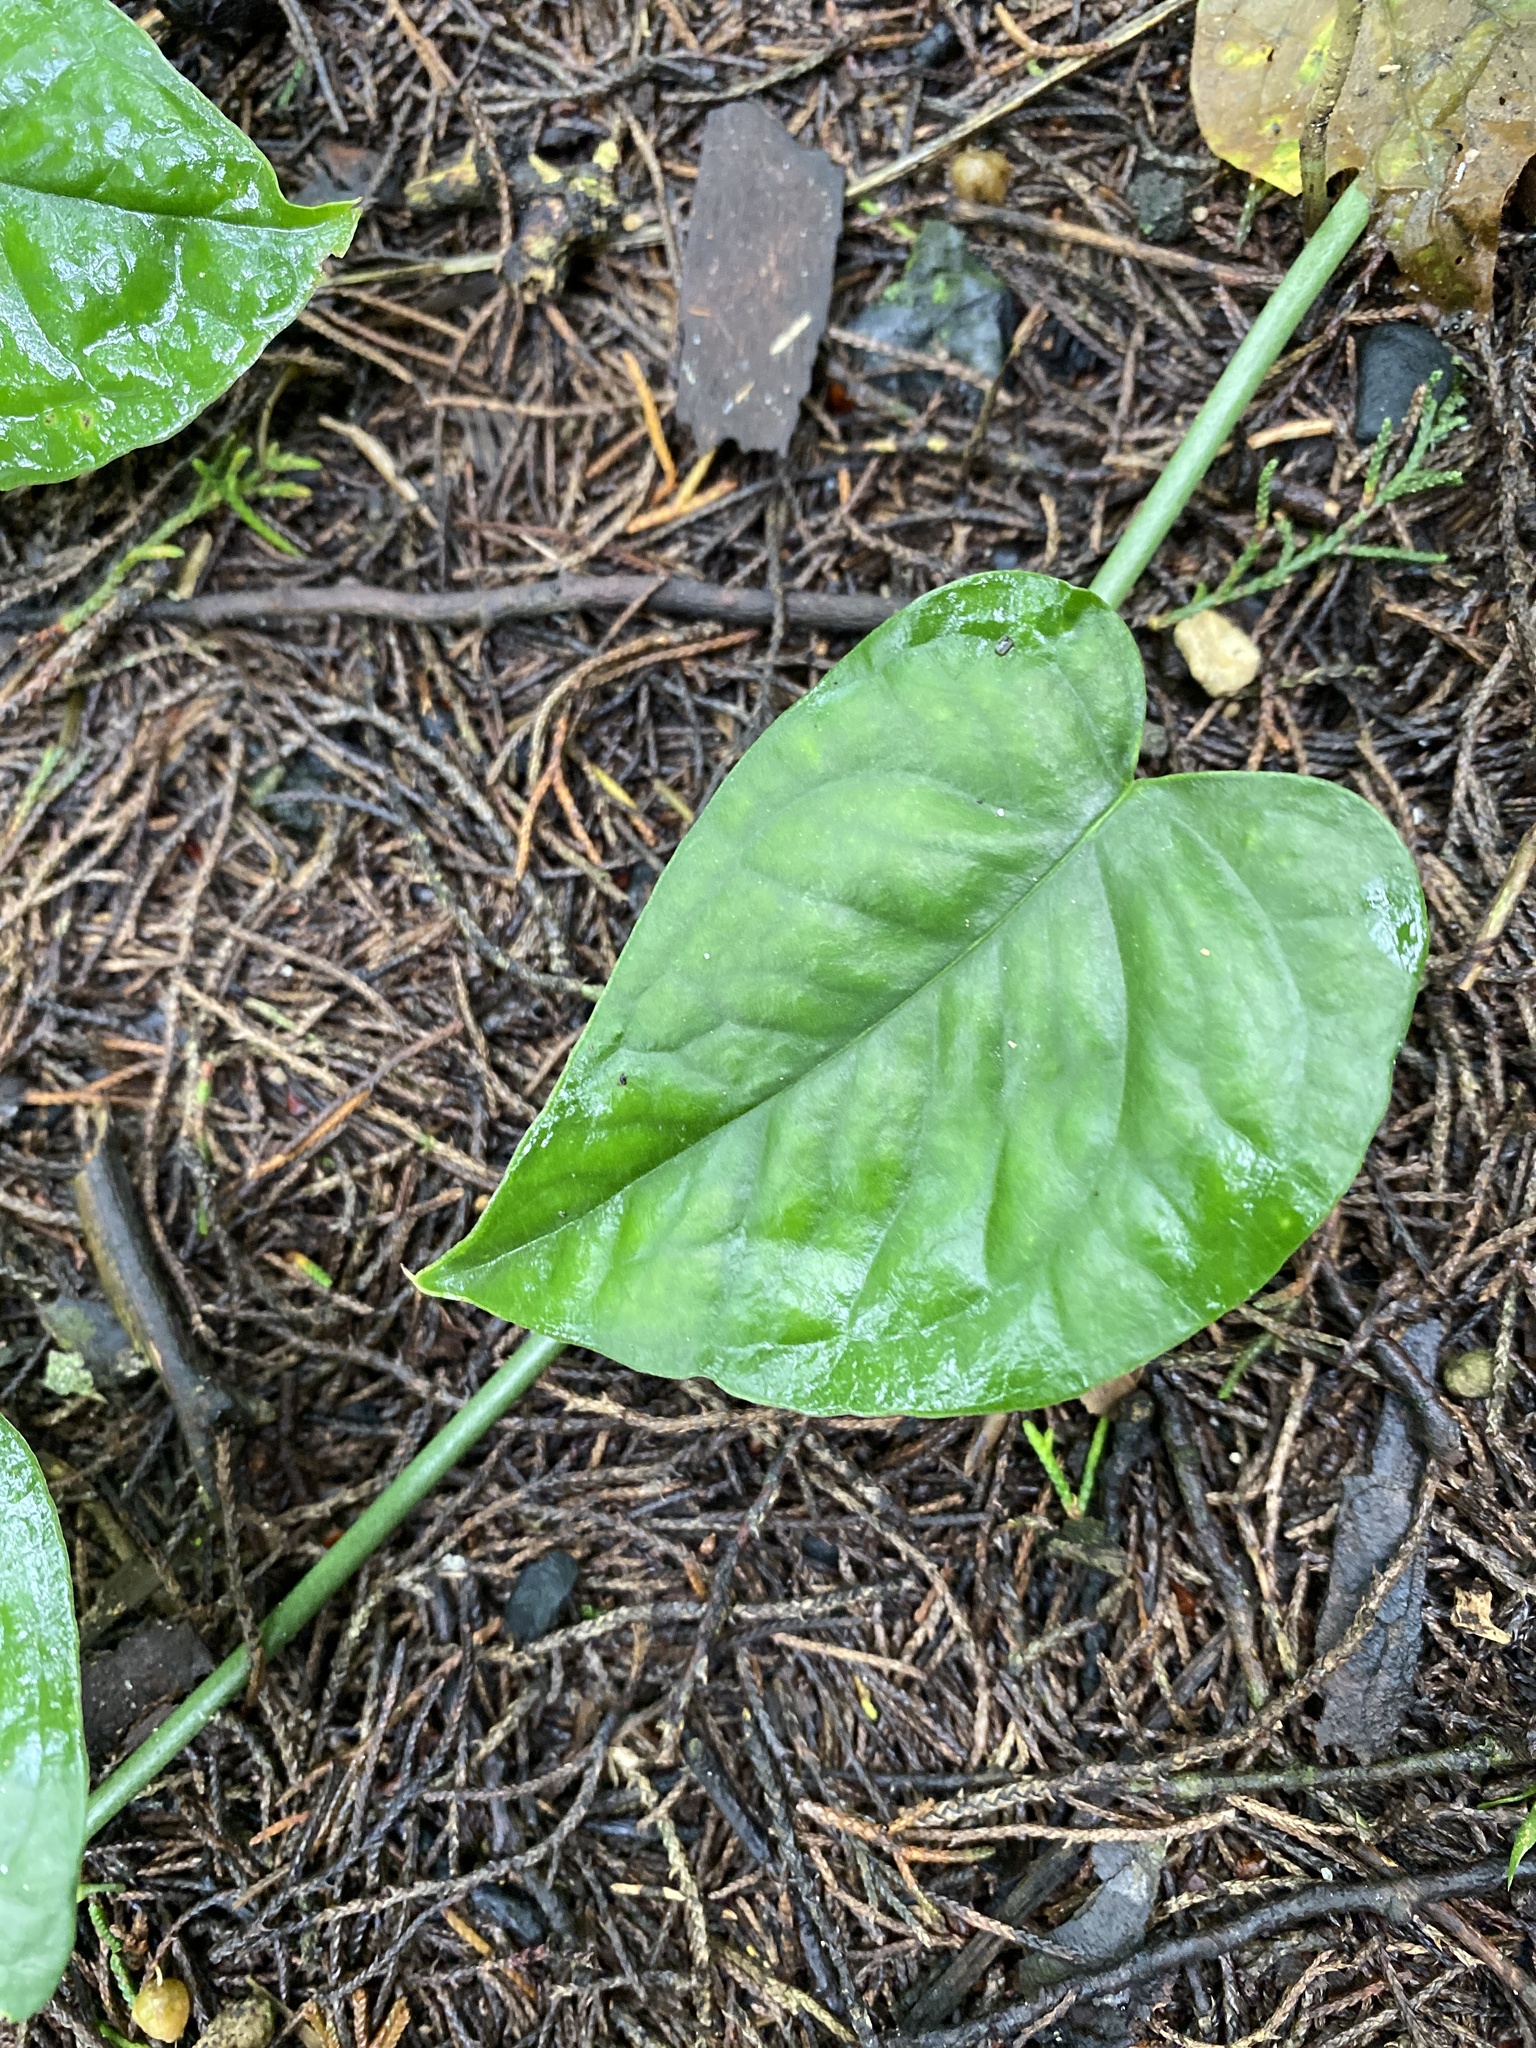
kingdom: Plantae
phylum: Tracheophyta
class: Liliopsida
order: Alismatales
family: Araceae
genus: Monstera
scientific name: Monstera siltepecana
